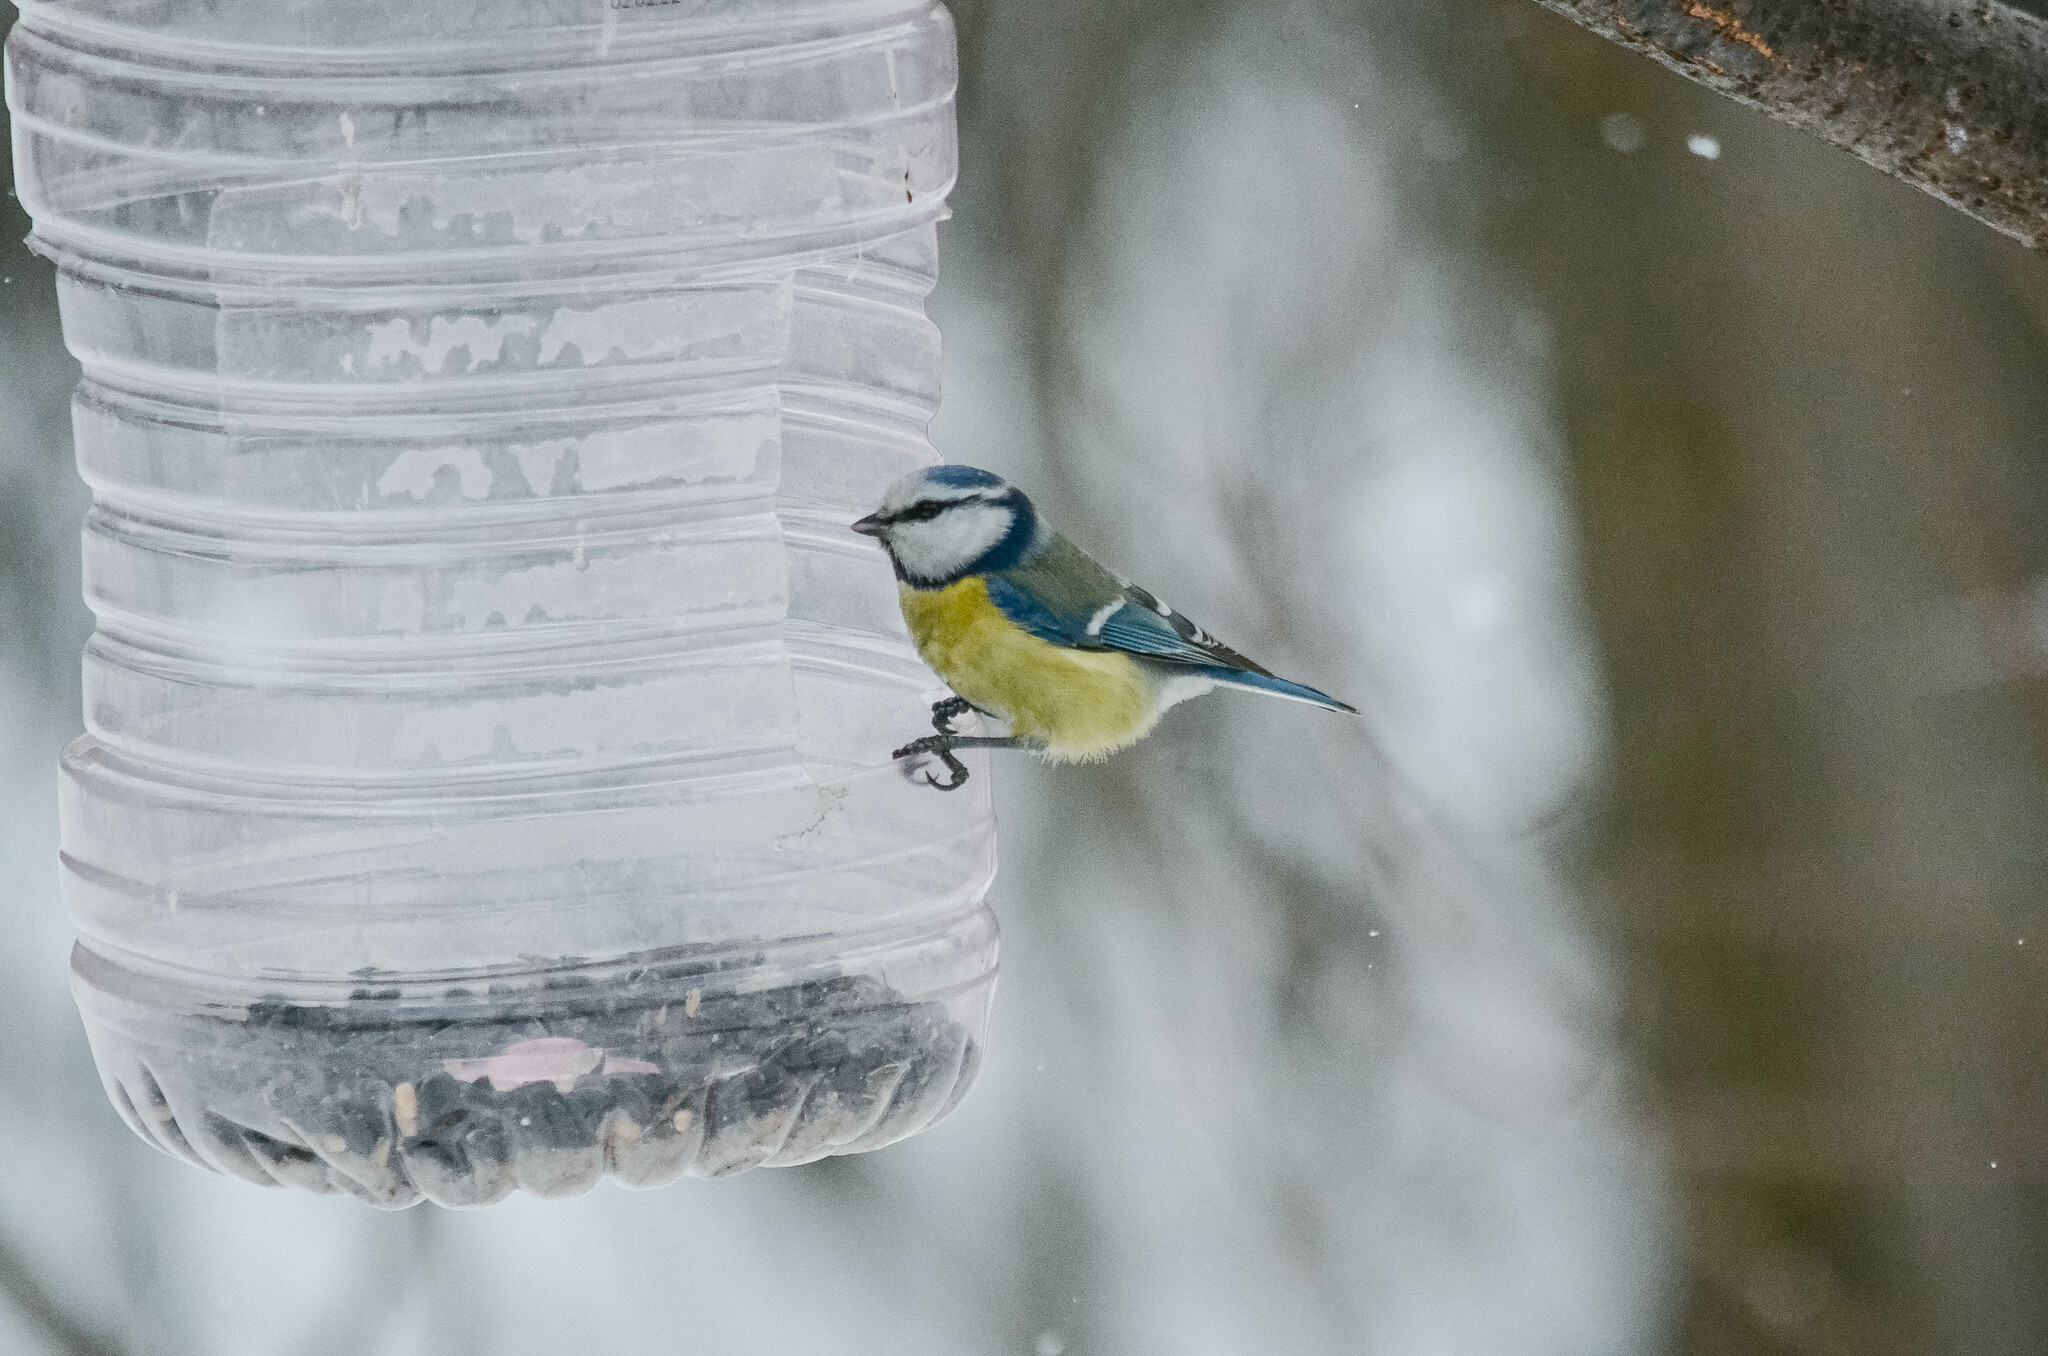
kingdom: Animalia
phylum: Chordata
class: Aves
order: Passeriformes
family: Paridae
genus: Cyanistes
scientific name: Cyanistes caeruleus
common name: Eurasian blue tit
